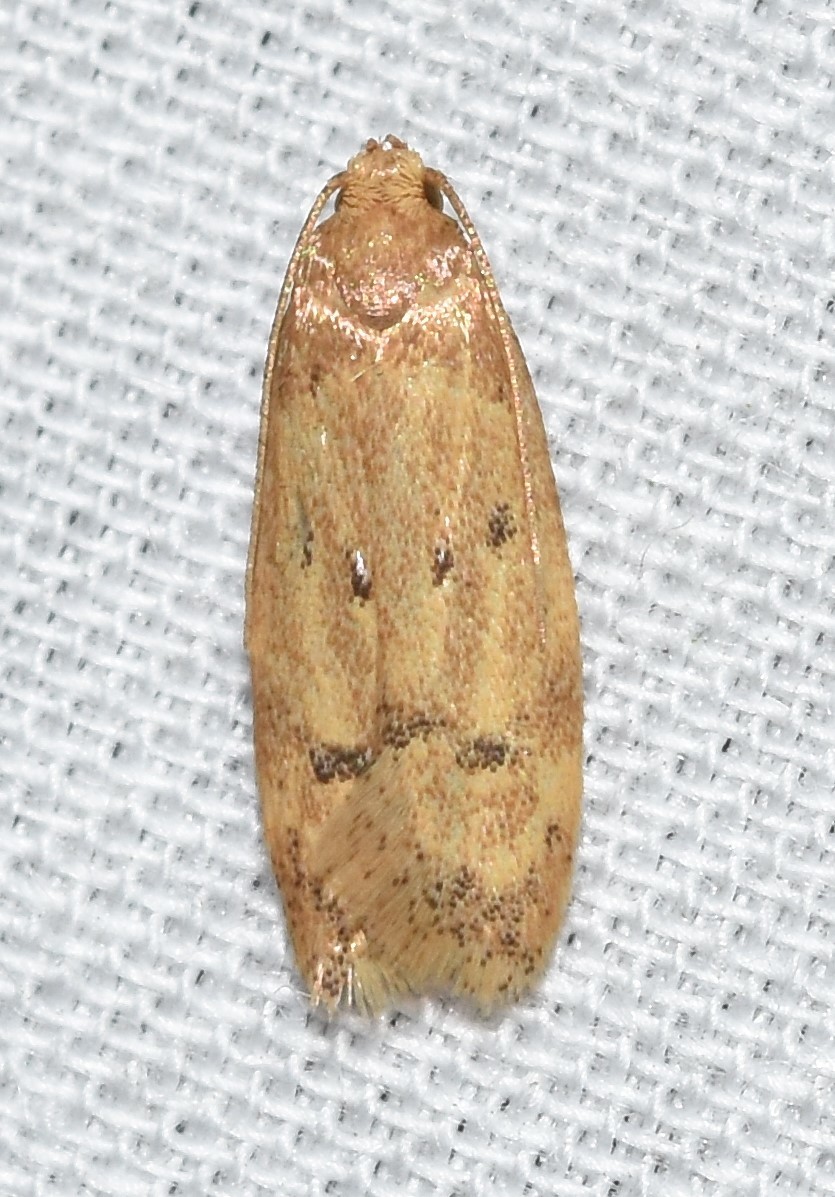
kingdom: Animalia
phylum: Arthropoda
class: Insecta
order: Lepidoptera
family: Autostichidae
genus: Gerdana
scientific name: Gerdana caritella
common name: Gerdana moth
